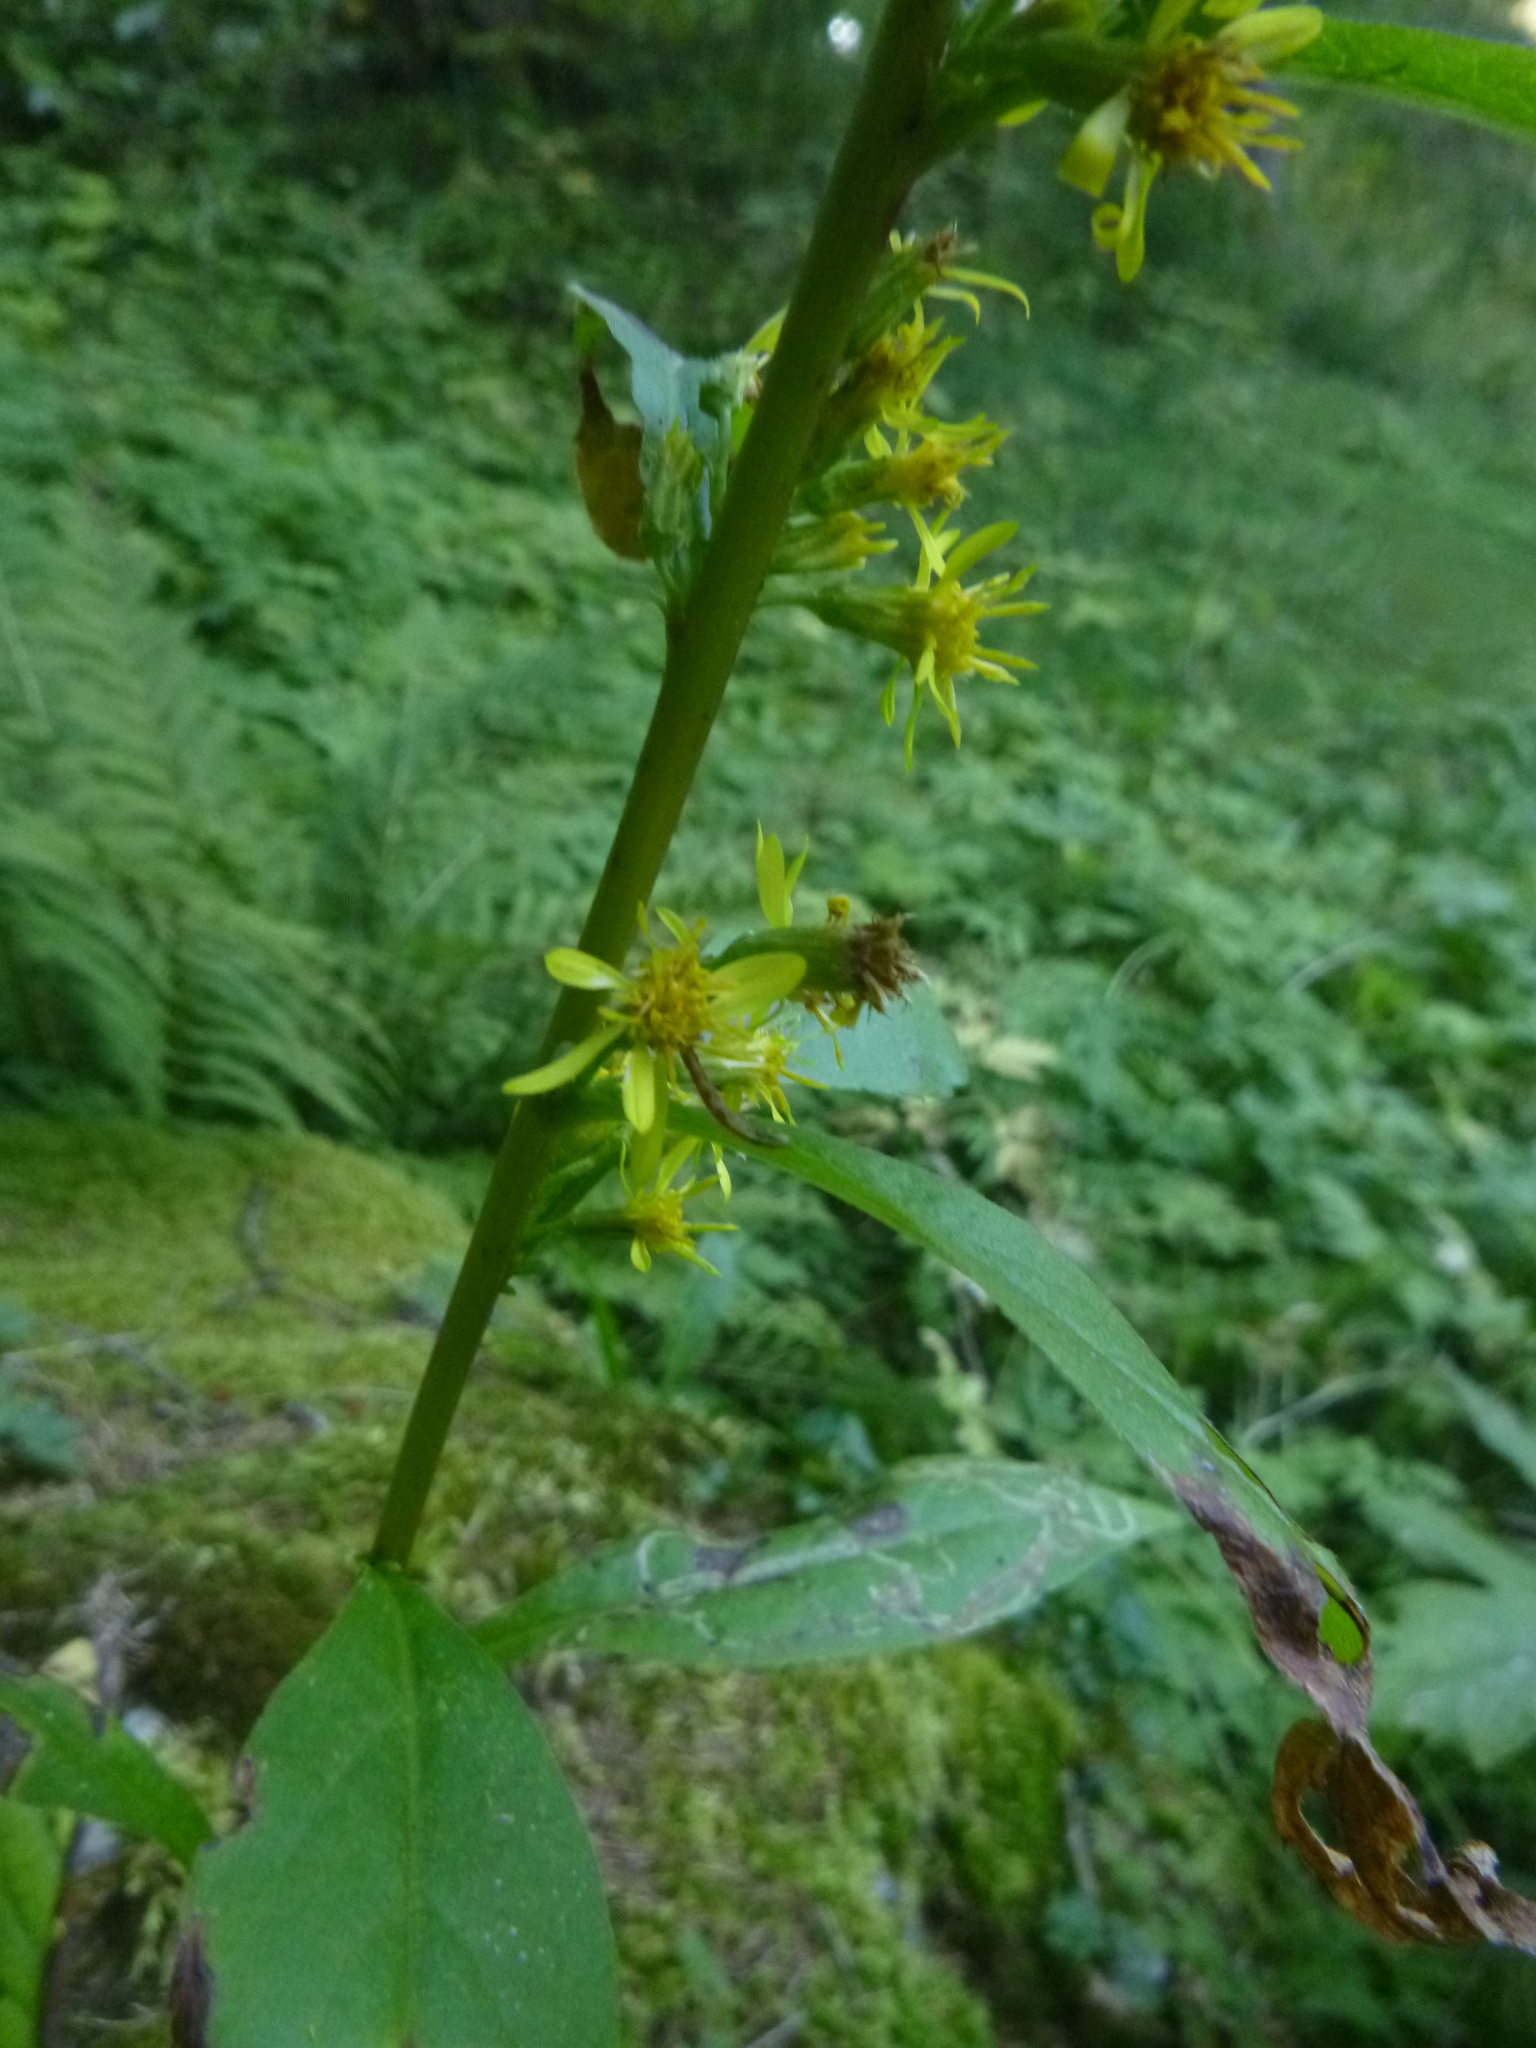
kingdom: Plantae
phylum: Tracheophyta
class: Magnoliopsida
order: Asterales
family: Asteraceae
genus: Solidago
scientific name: Solidago virgaurea
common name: Goldenrod
